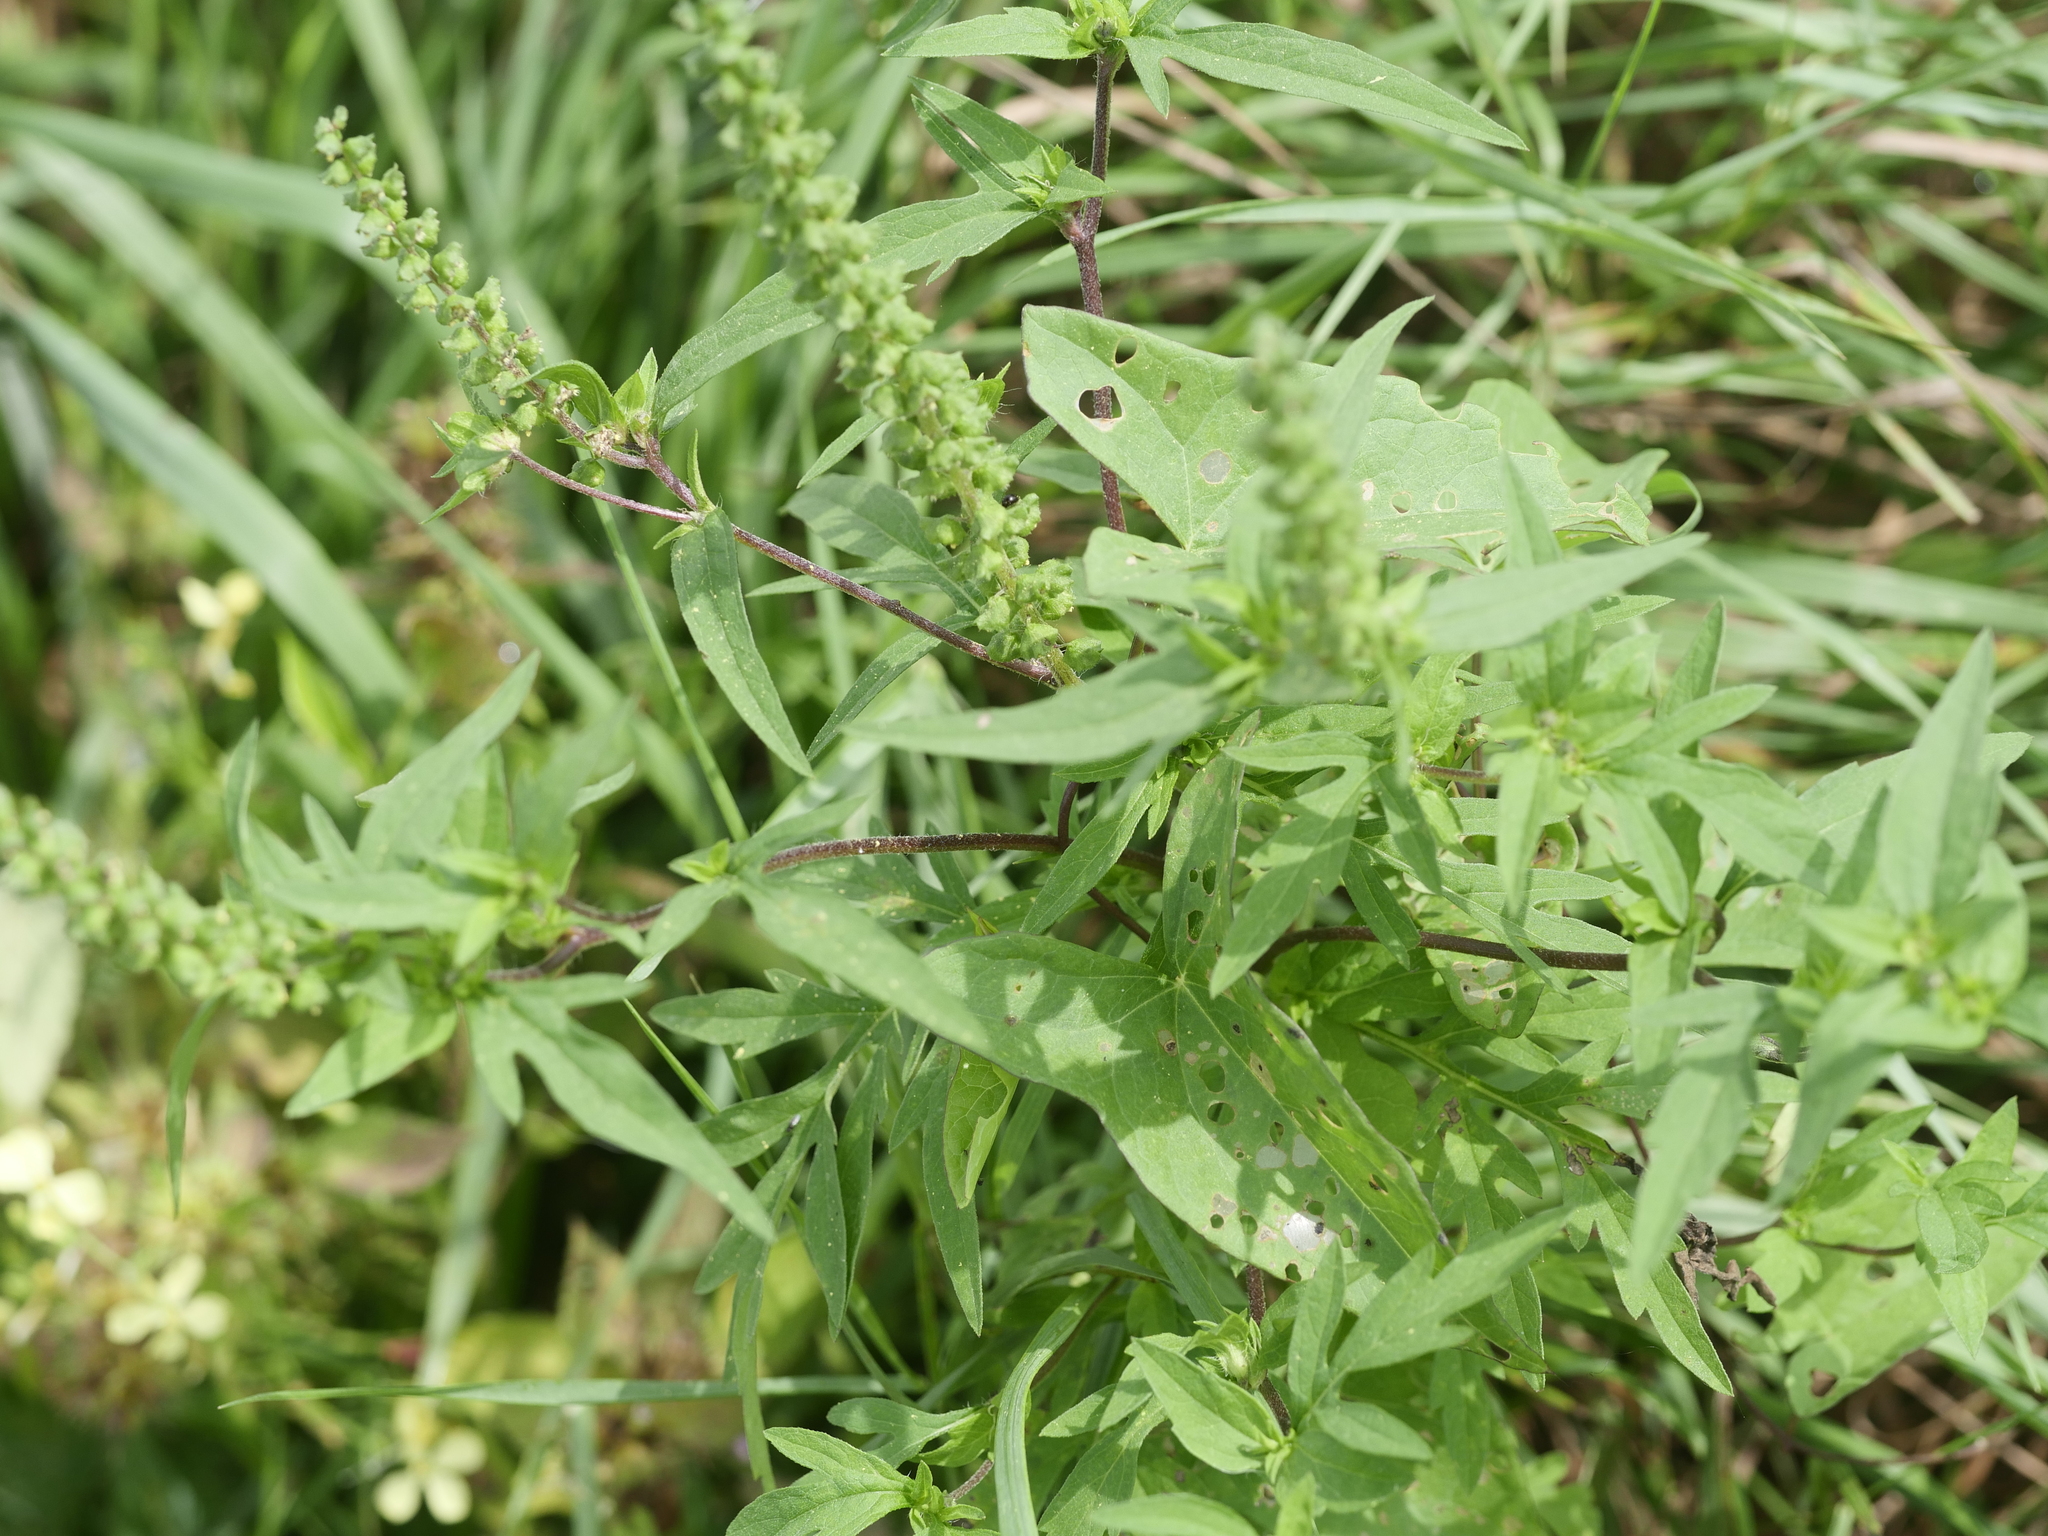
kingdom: Plantae
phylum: Tracheophyta
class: Magnoliopsida
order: Asterales
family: Asteraceae
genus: Ambrosia
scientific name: Ambrosia artemisiifolia
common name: Annual ragweed
